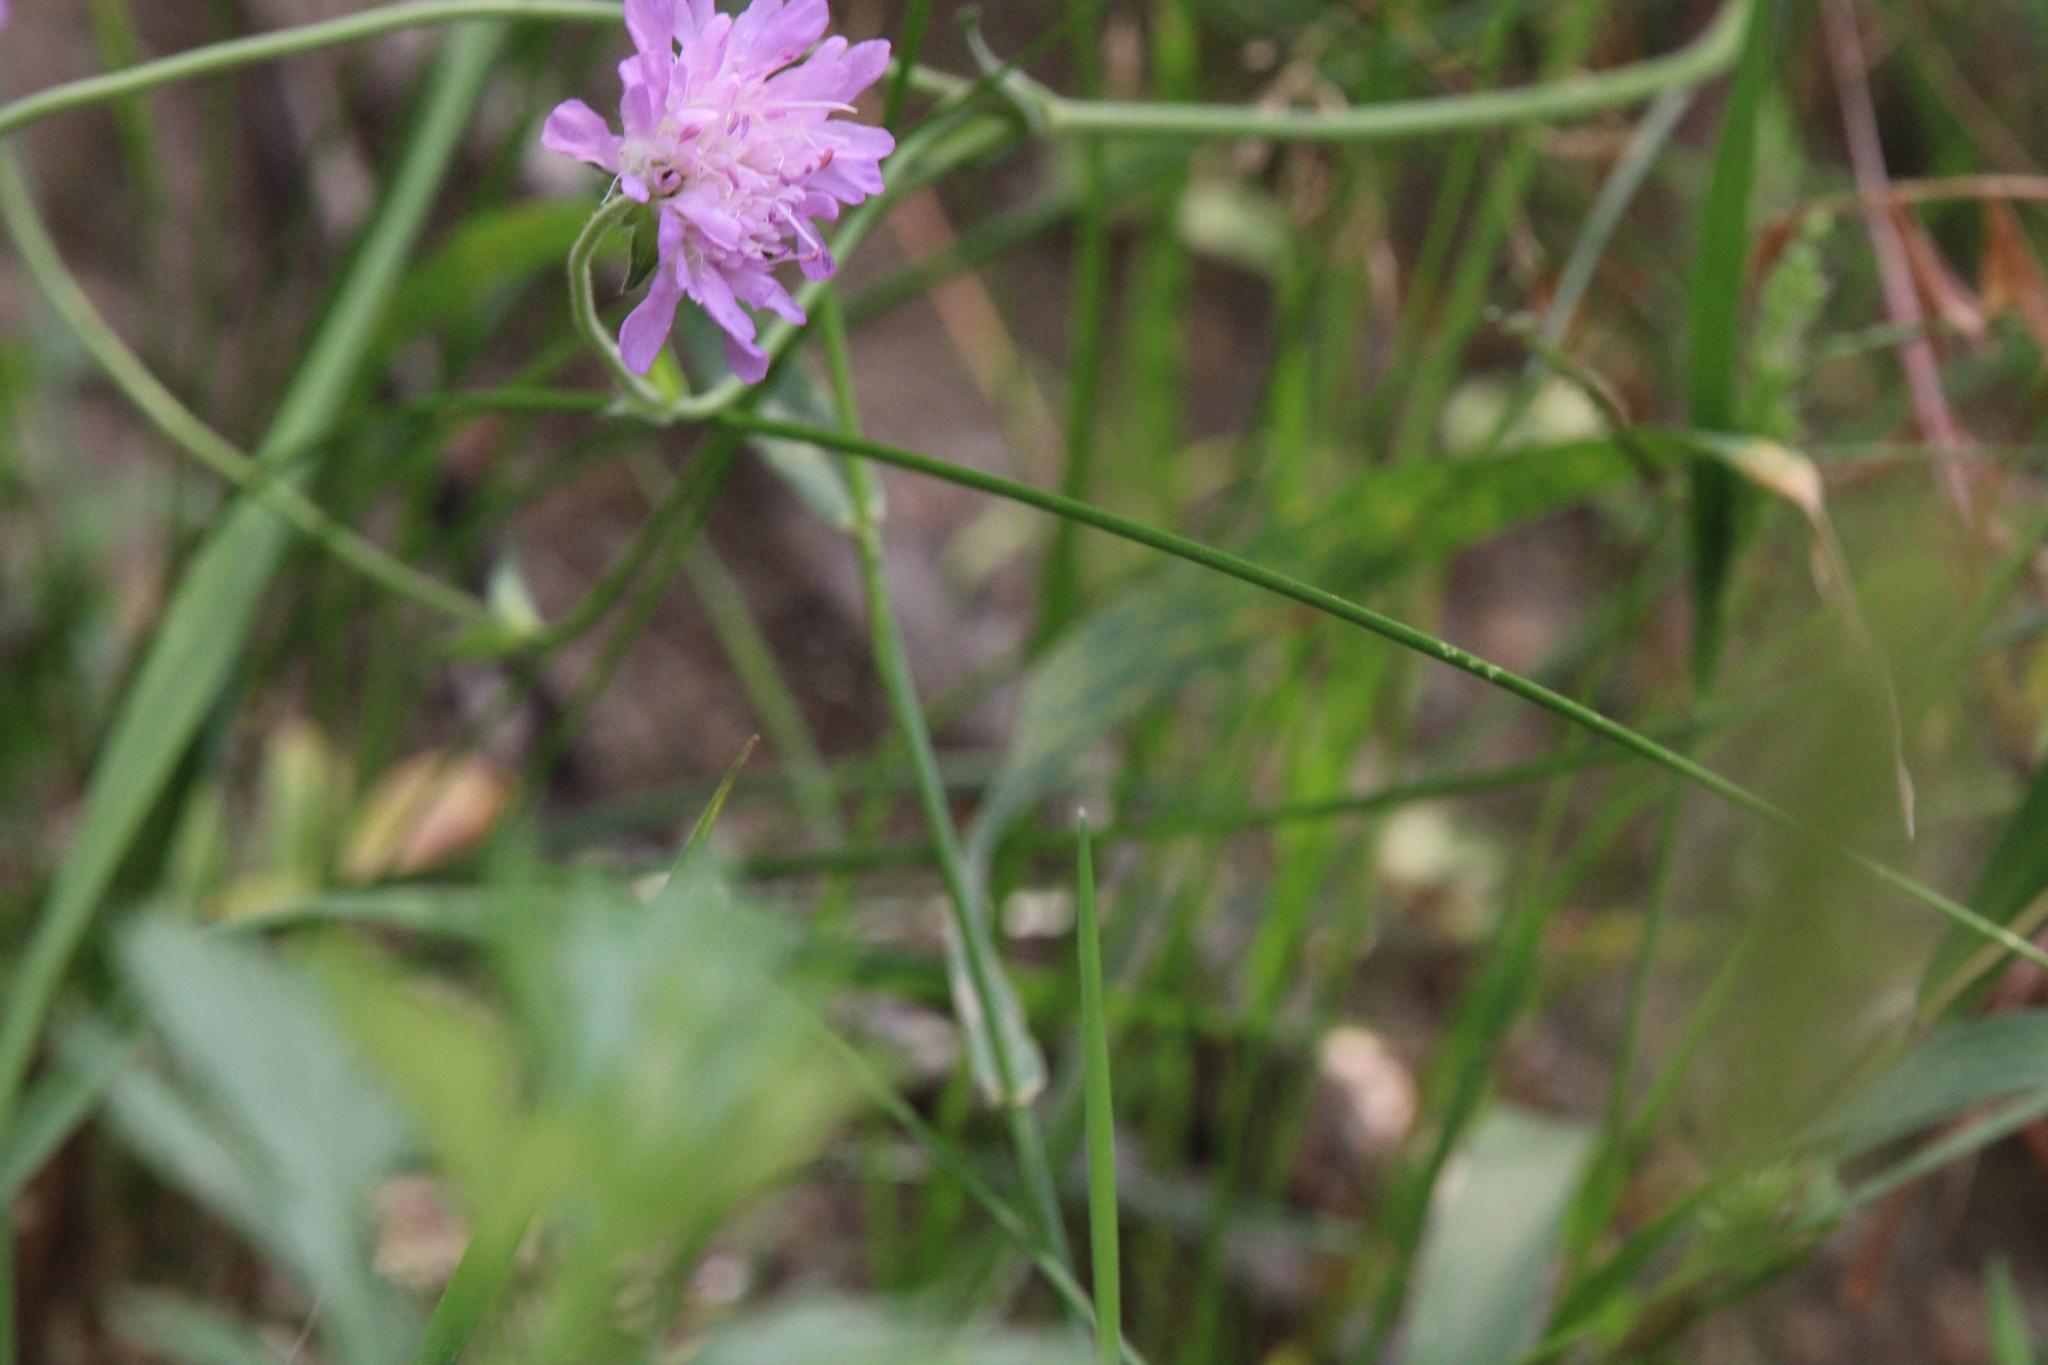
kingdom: Plantae
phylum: Tracheophyta
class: Magnoliopsida
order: Dipsacales
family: Caprifoliaceae
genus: Knautia
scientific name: Knautia arvensis
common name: Field scabiosa
